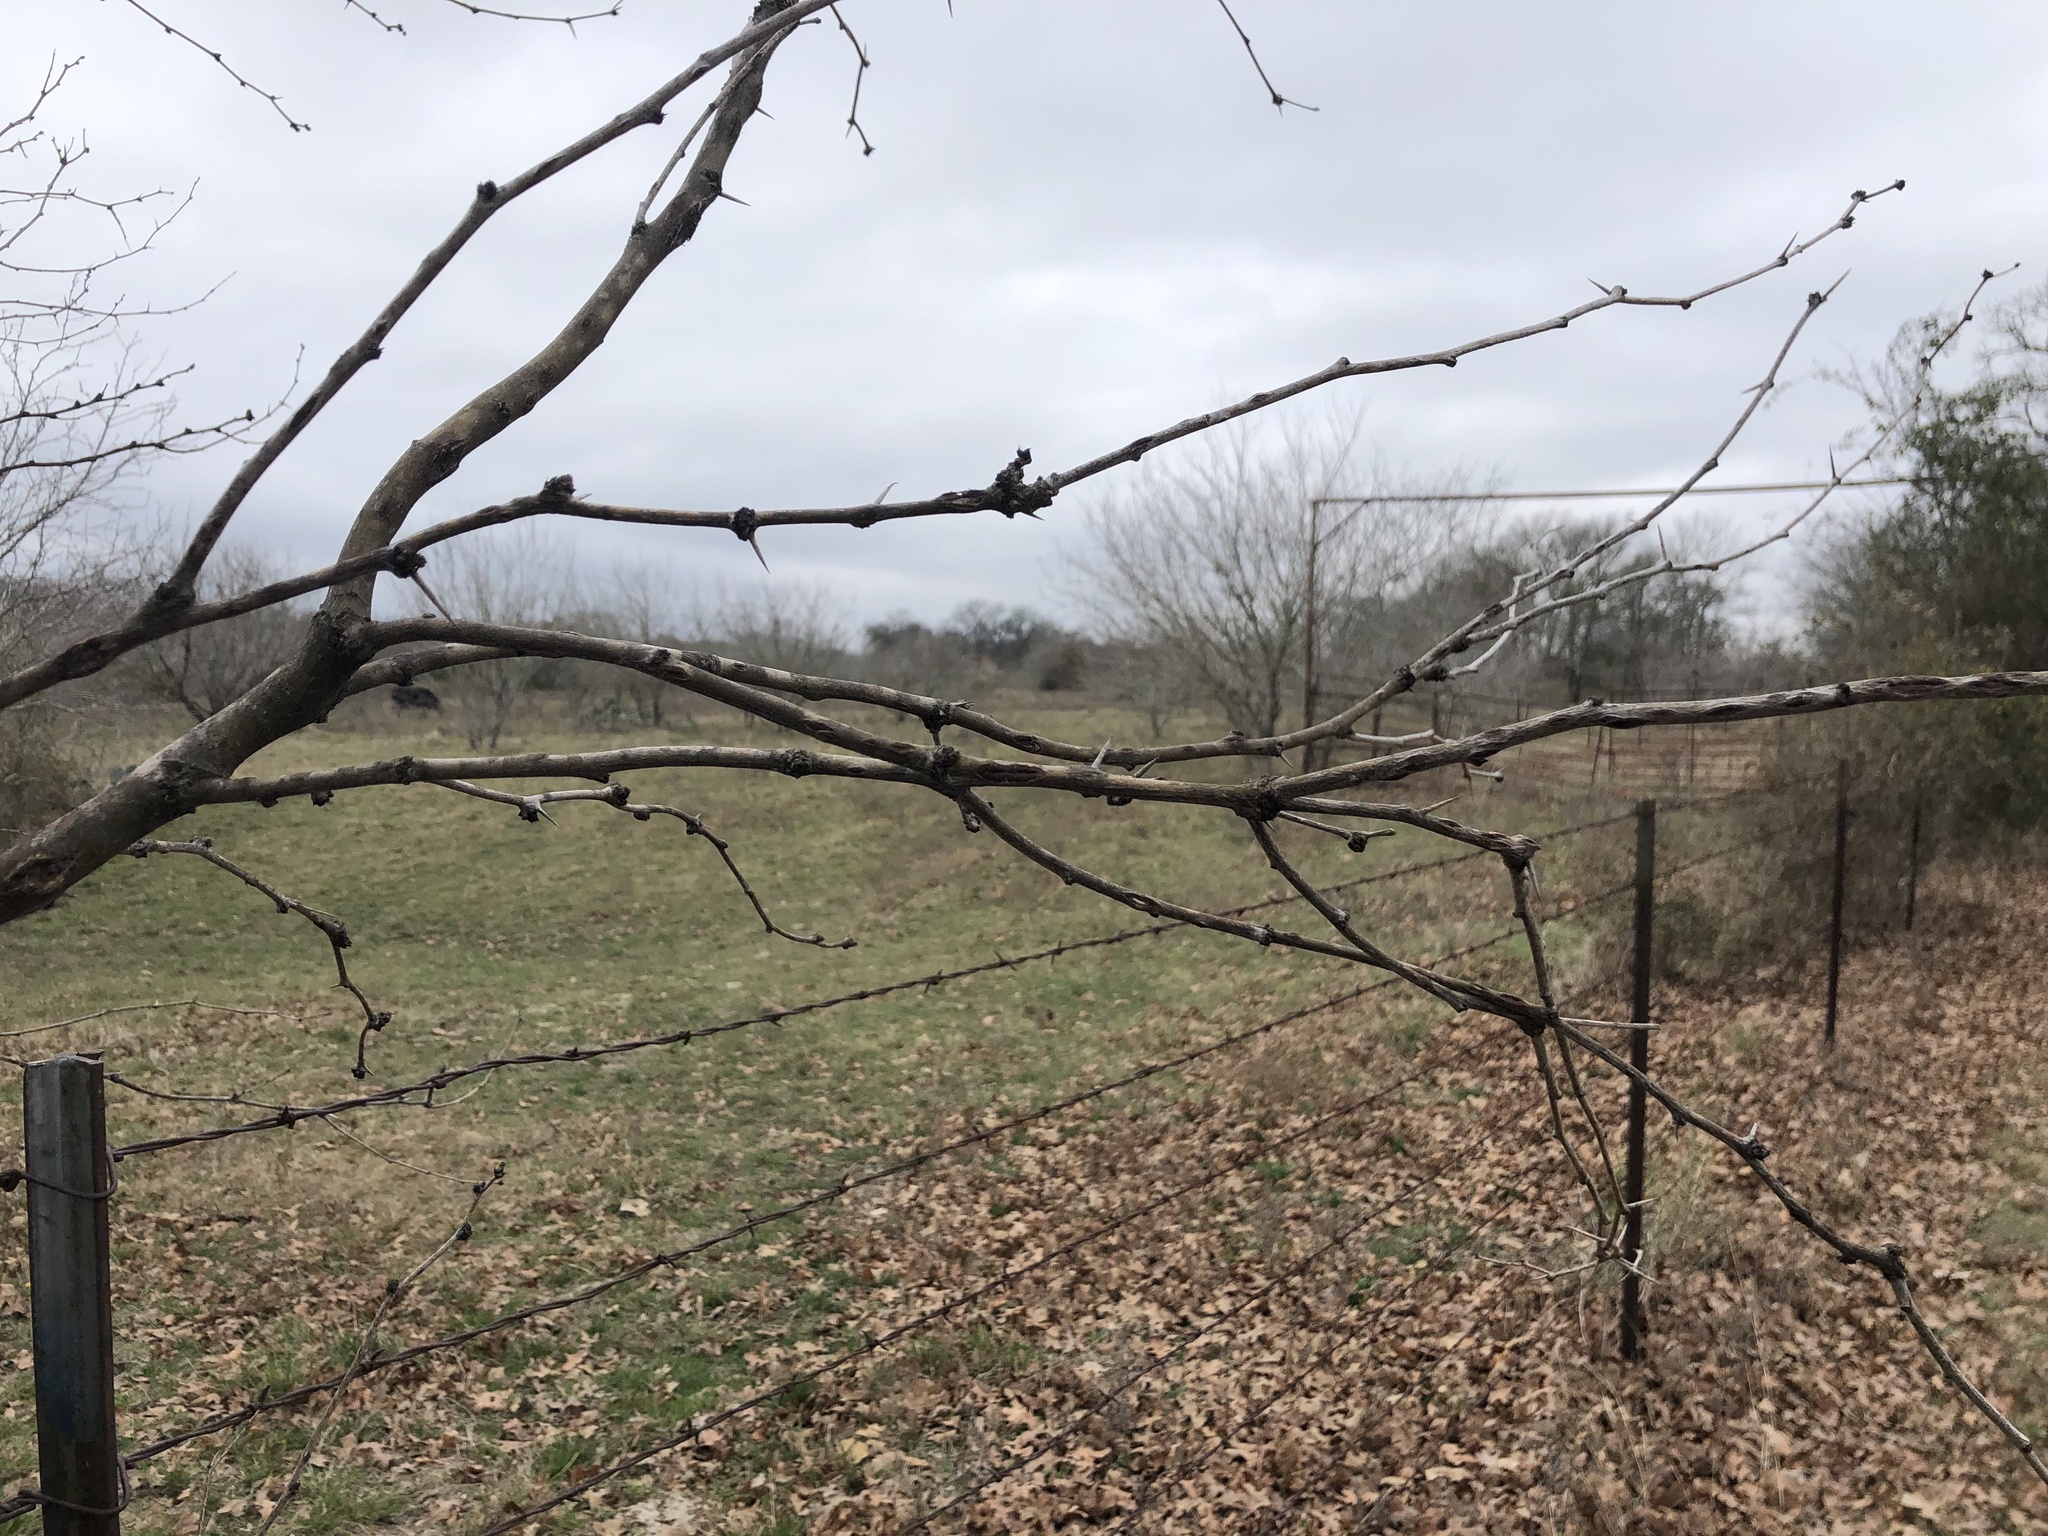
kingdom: Plantae
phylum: Tracheophyta
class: Magnoliopsida
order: Fabales
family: Fabaceae
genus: Prosopis
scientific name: Prosopis glandulosa
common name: Honey mesquite
